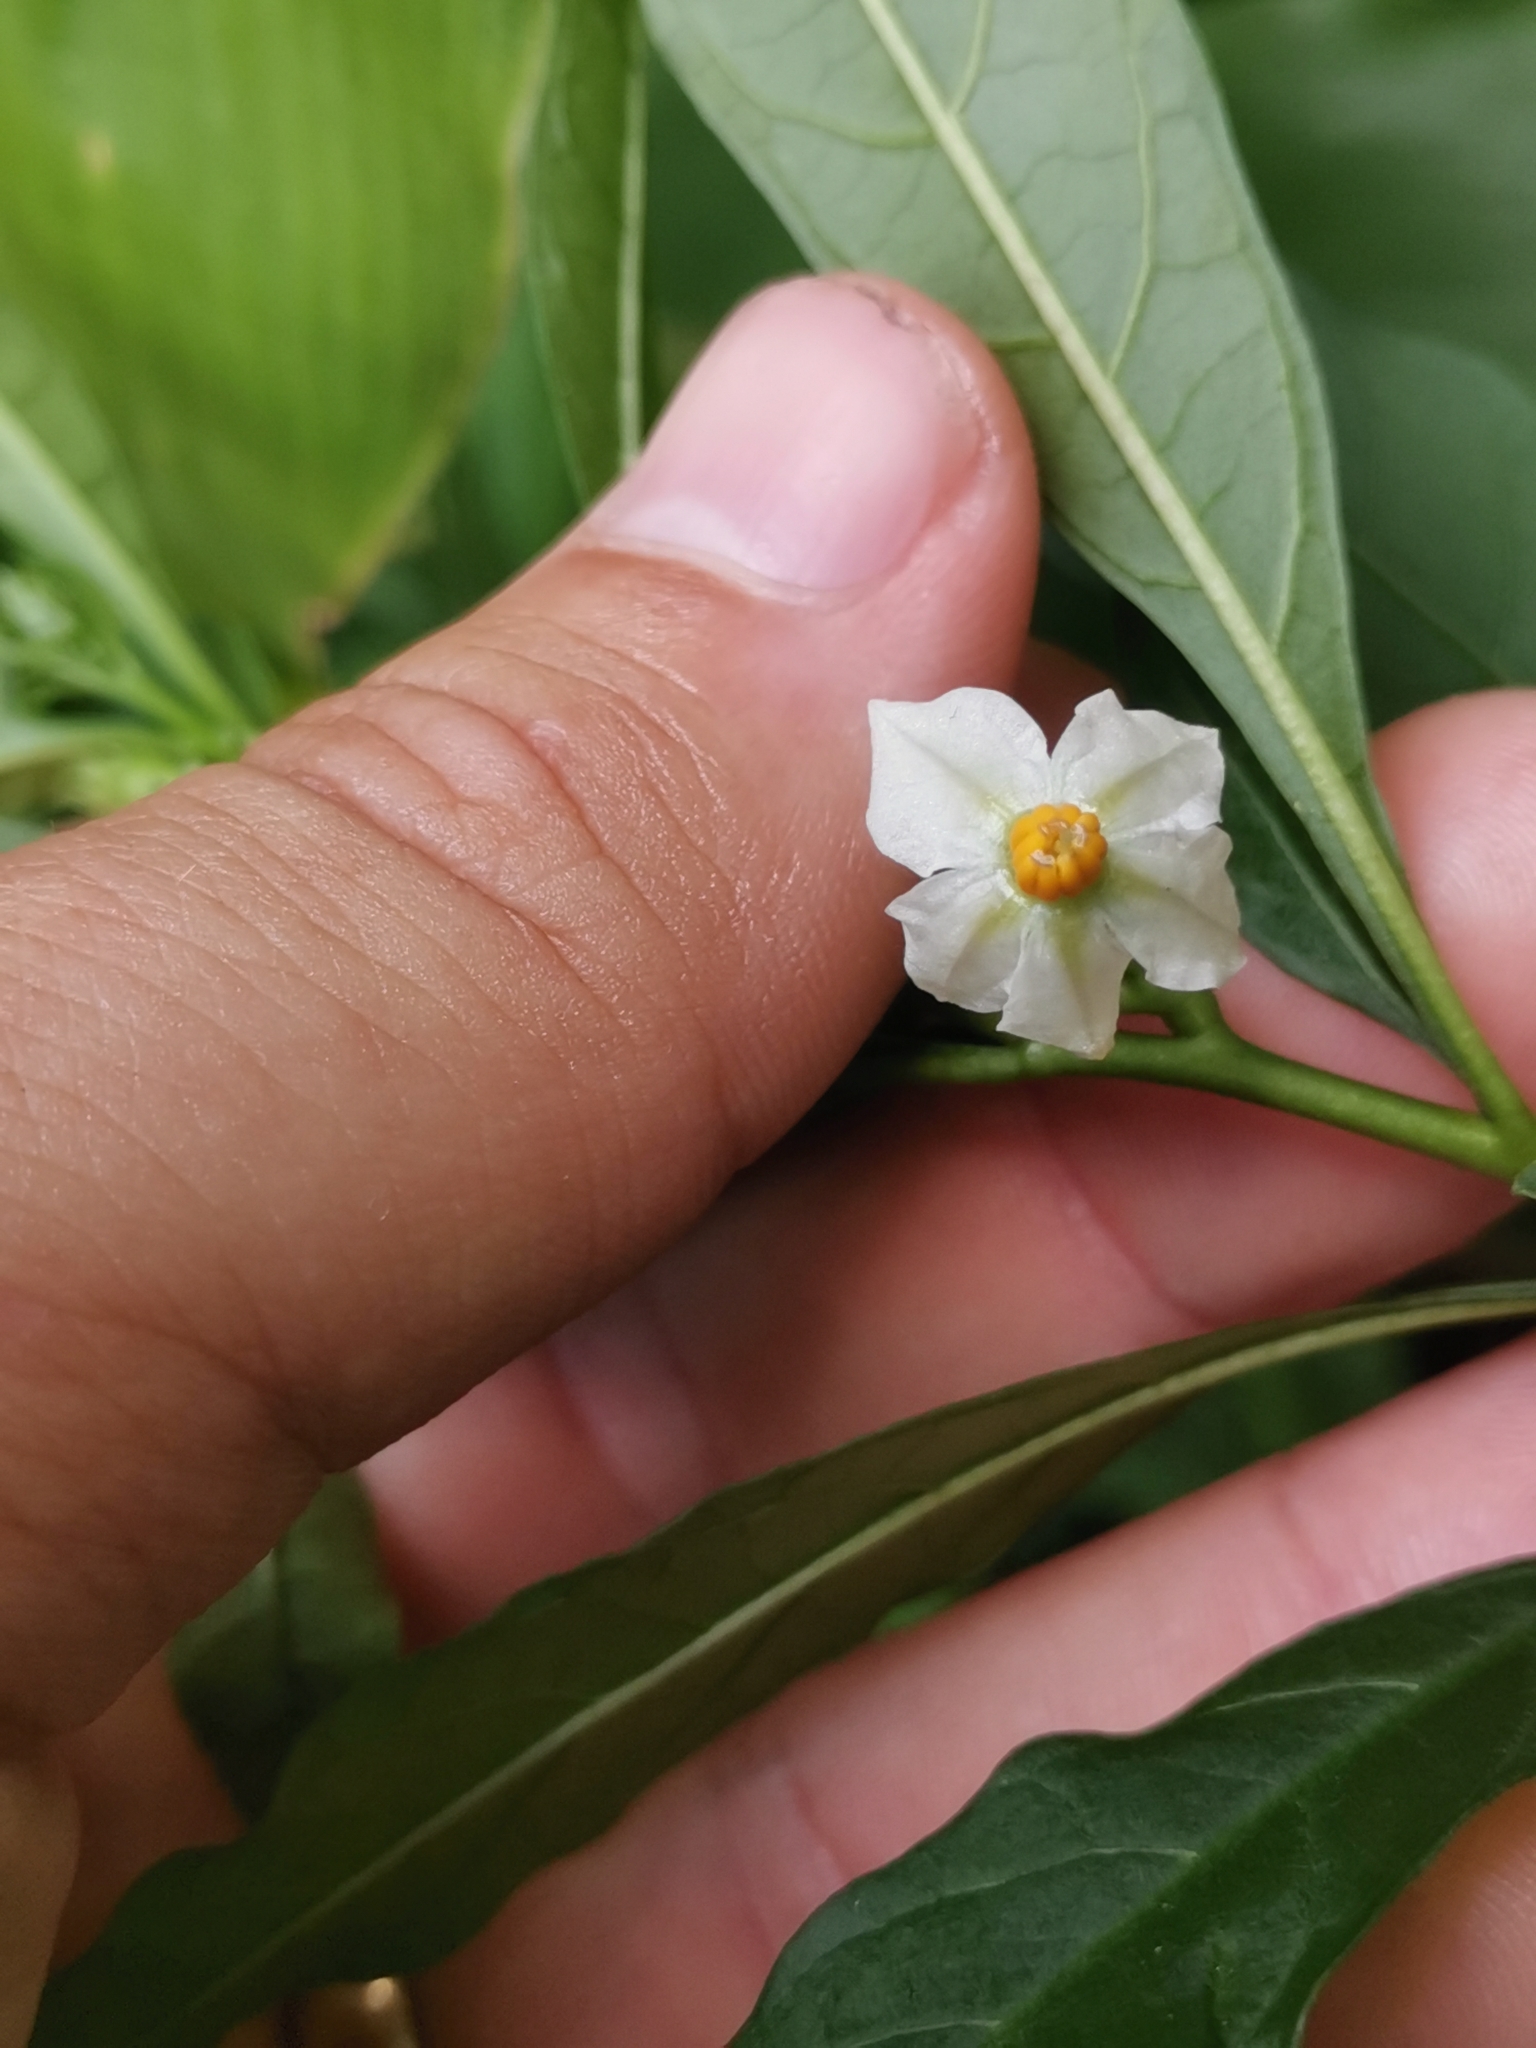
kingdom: Plantae
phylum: Tracheophyta
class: Magnoliopsida
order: Solanales
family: Solanaceae
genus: Solanum
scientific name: Solanum pseudocapsicum
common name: Jerusalem cherry
